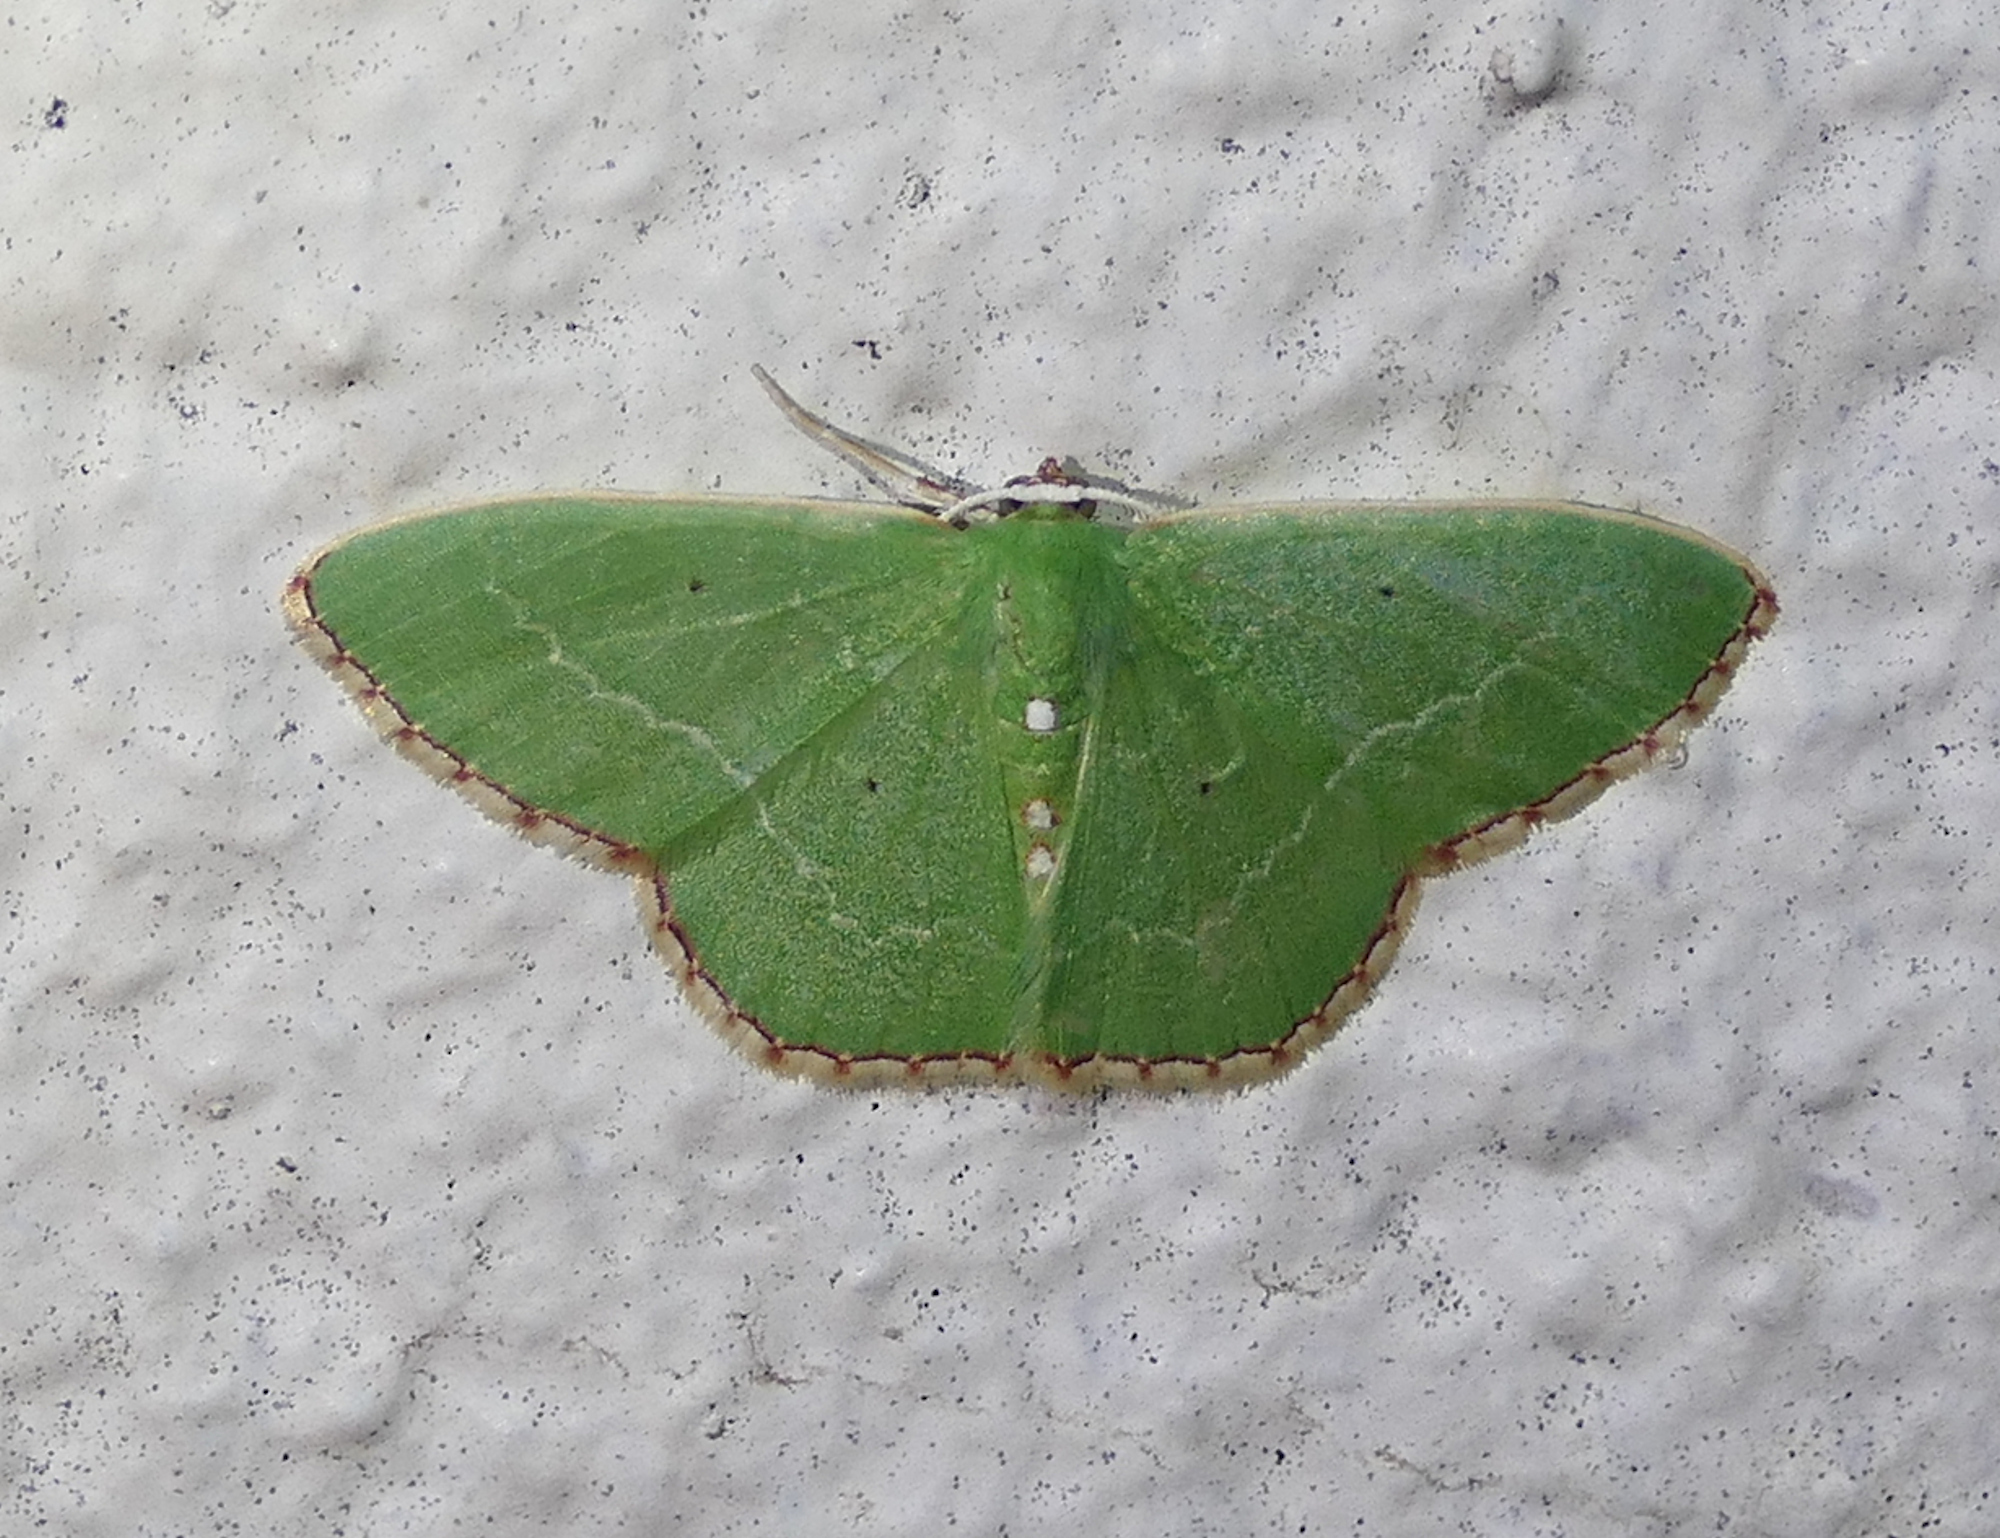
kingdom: Animalia
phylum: Arthropoda
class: Insecta
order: Lepidoptera
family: Geometridae
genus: Nemoria
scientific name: Nemoria lixaria
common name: Red-bordered emerald
